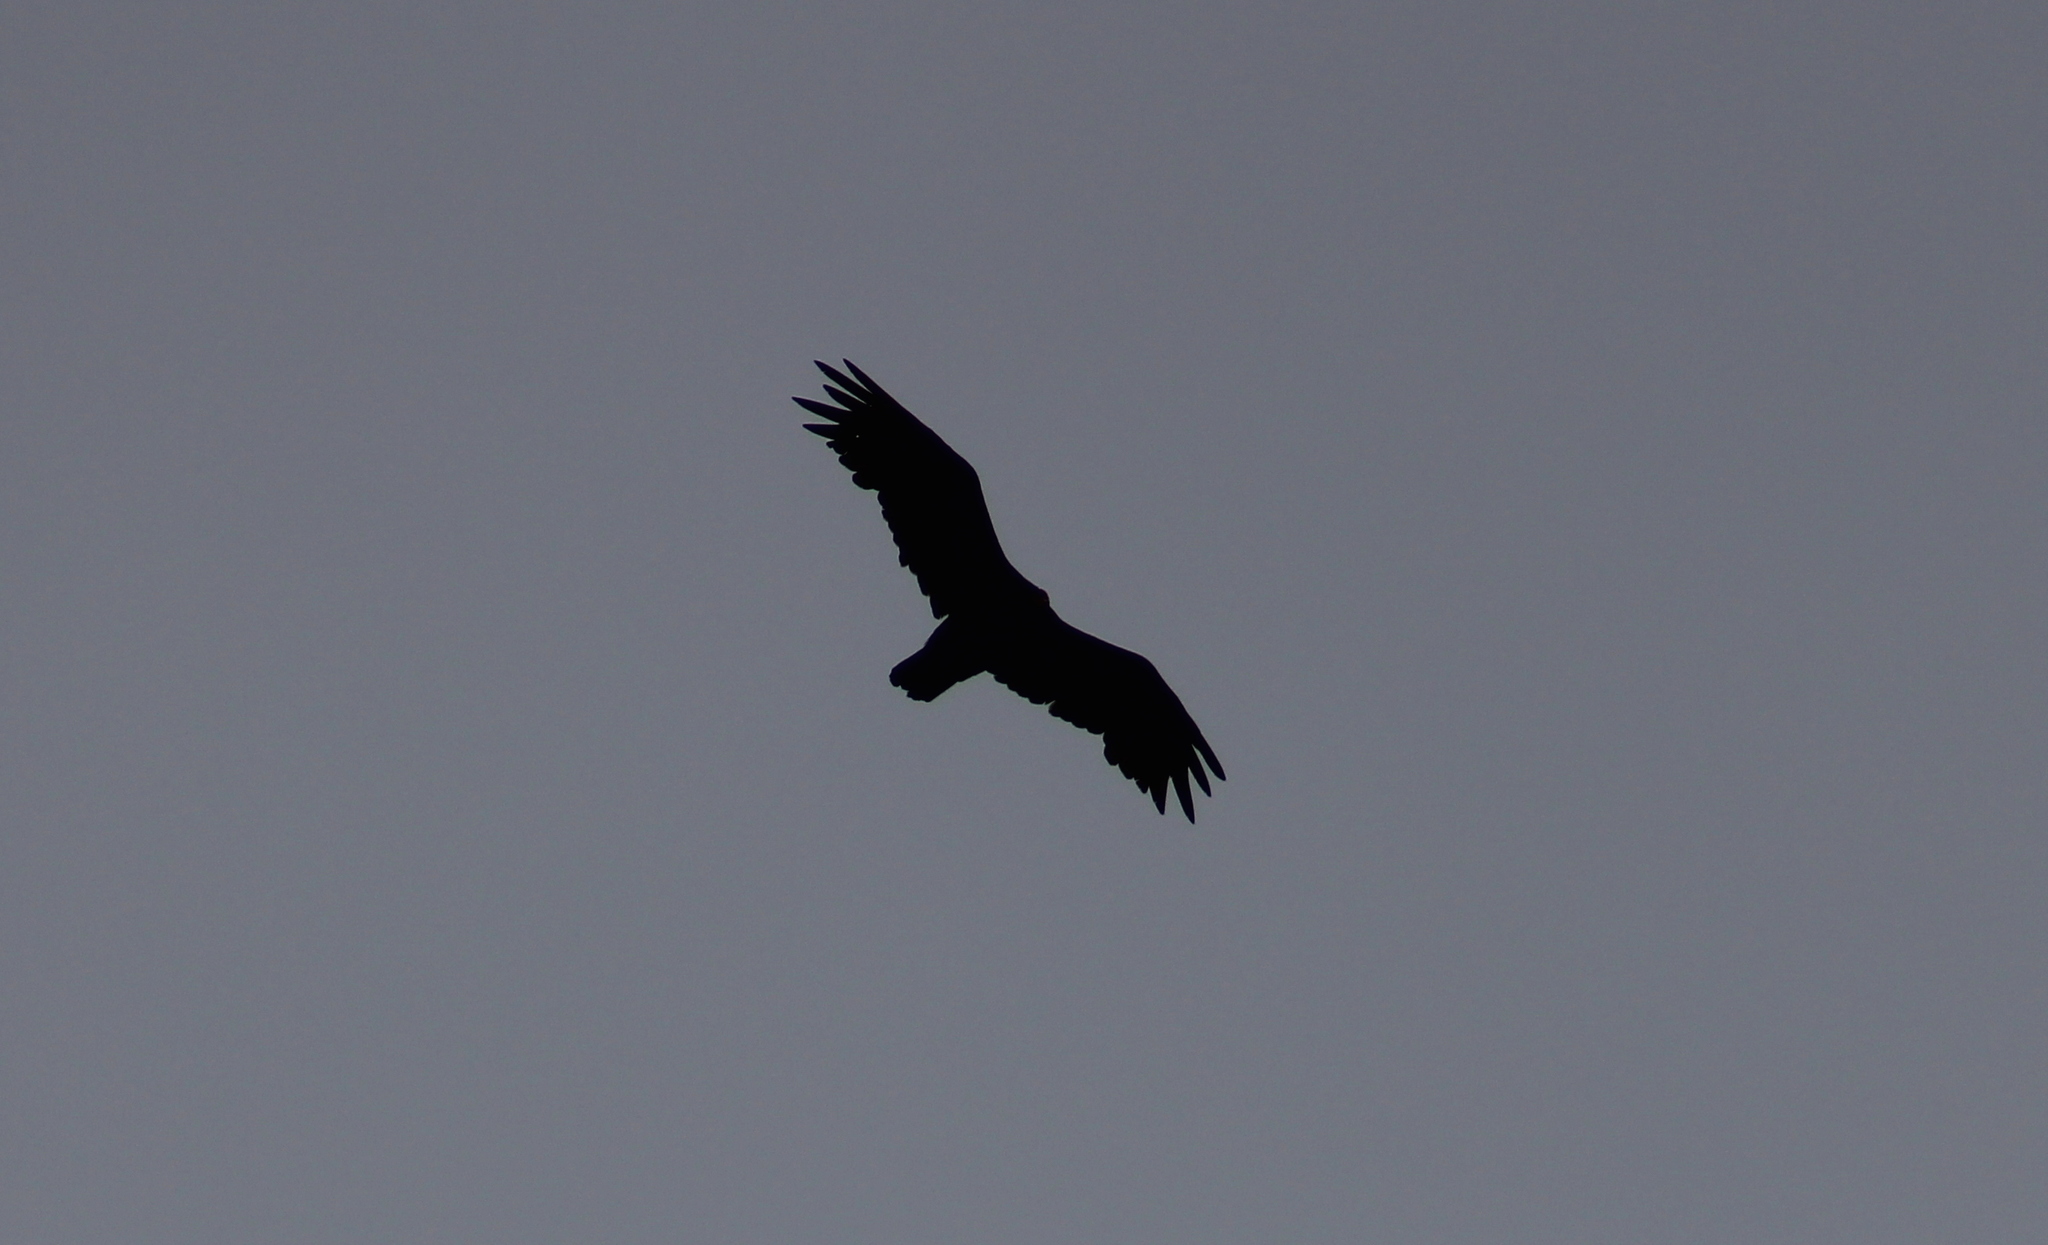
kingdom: Animalia
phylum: Chordata
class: Aves
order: Accipitriformes
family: Cathartidae
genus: Vultur
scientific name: Vultur gryphus
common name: Andean condor
